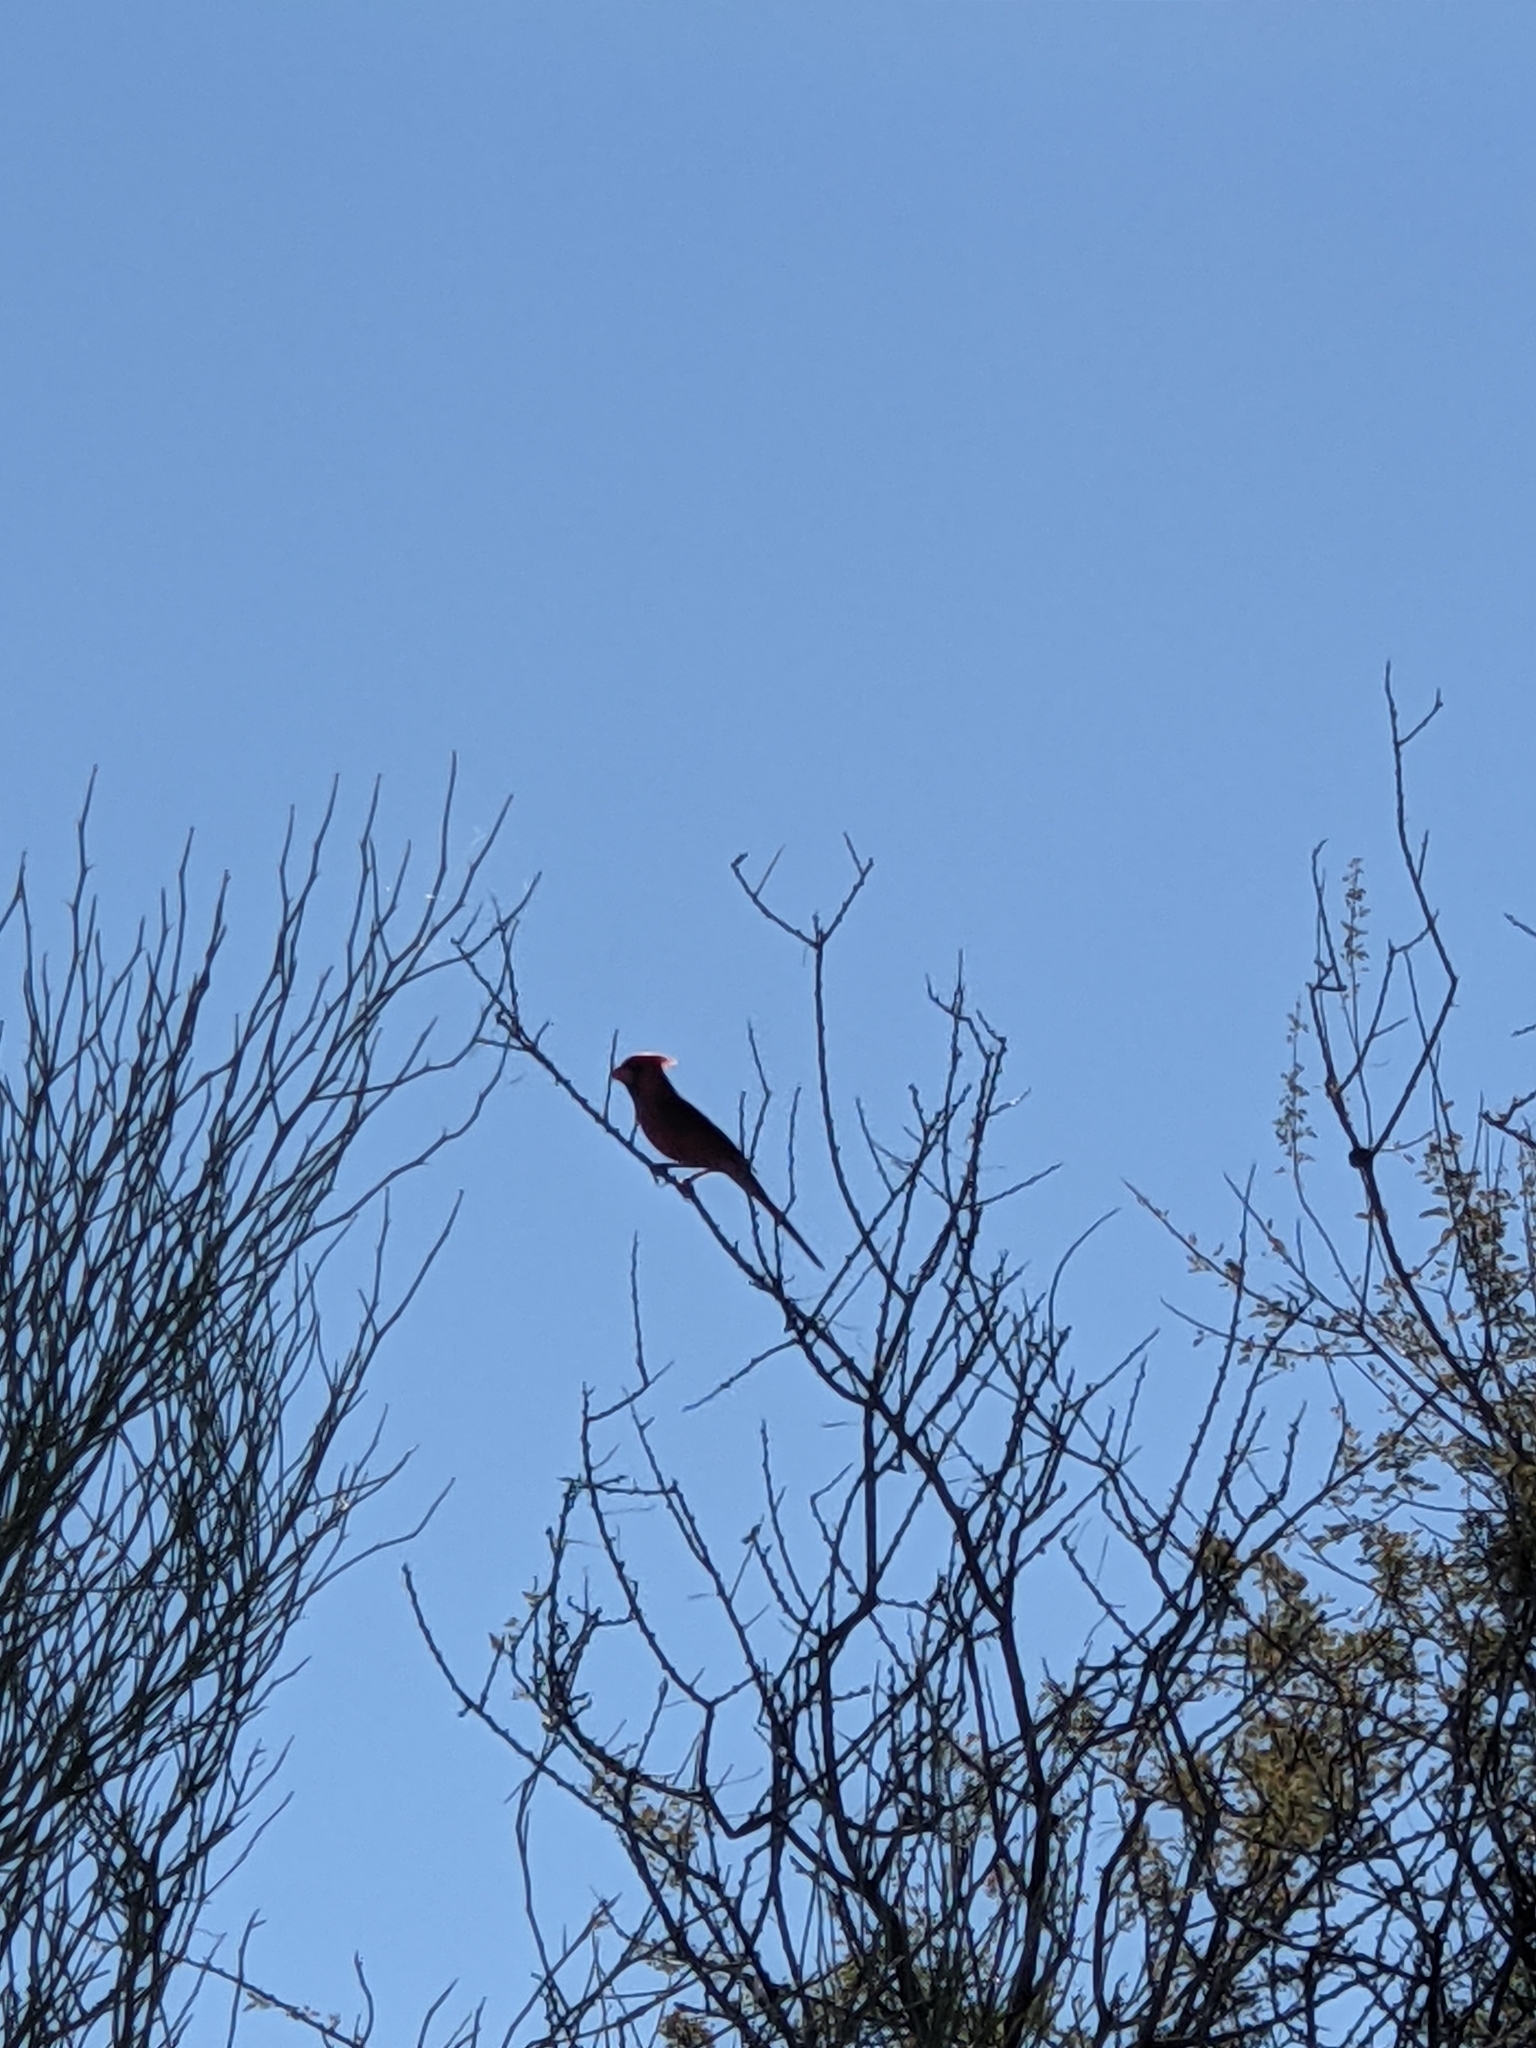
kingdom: Animalia
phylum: Chordata
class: Aves
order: Passeriformes
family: Cardinalidae
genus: Cardinalis
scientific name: Cardinalis cardinalis
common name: Northern cardinal
